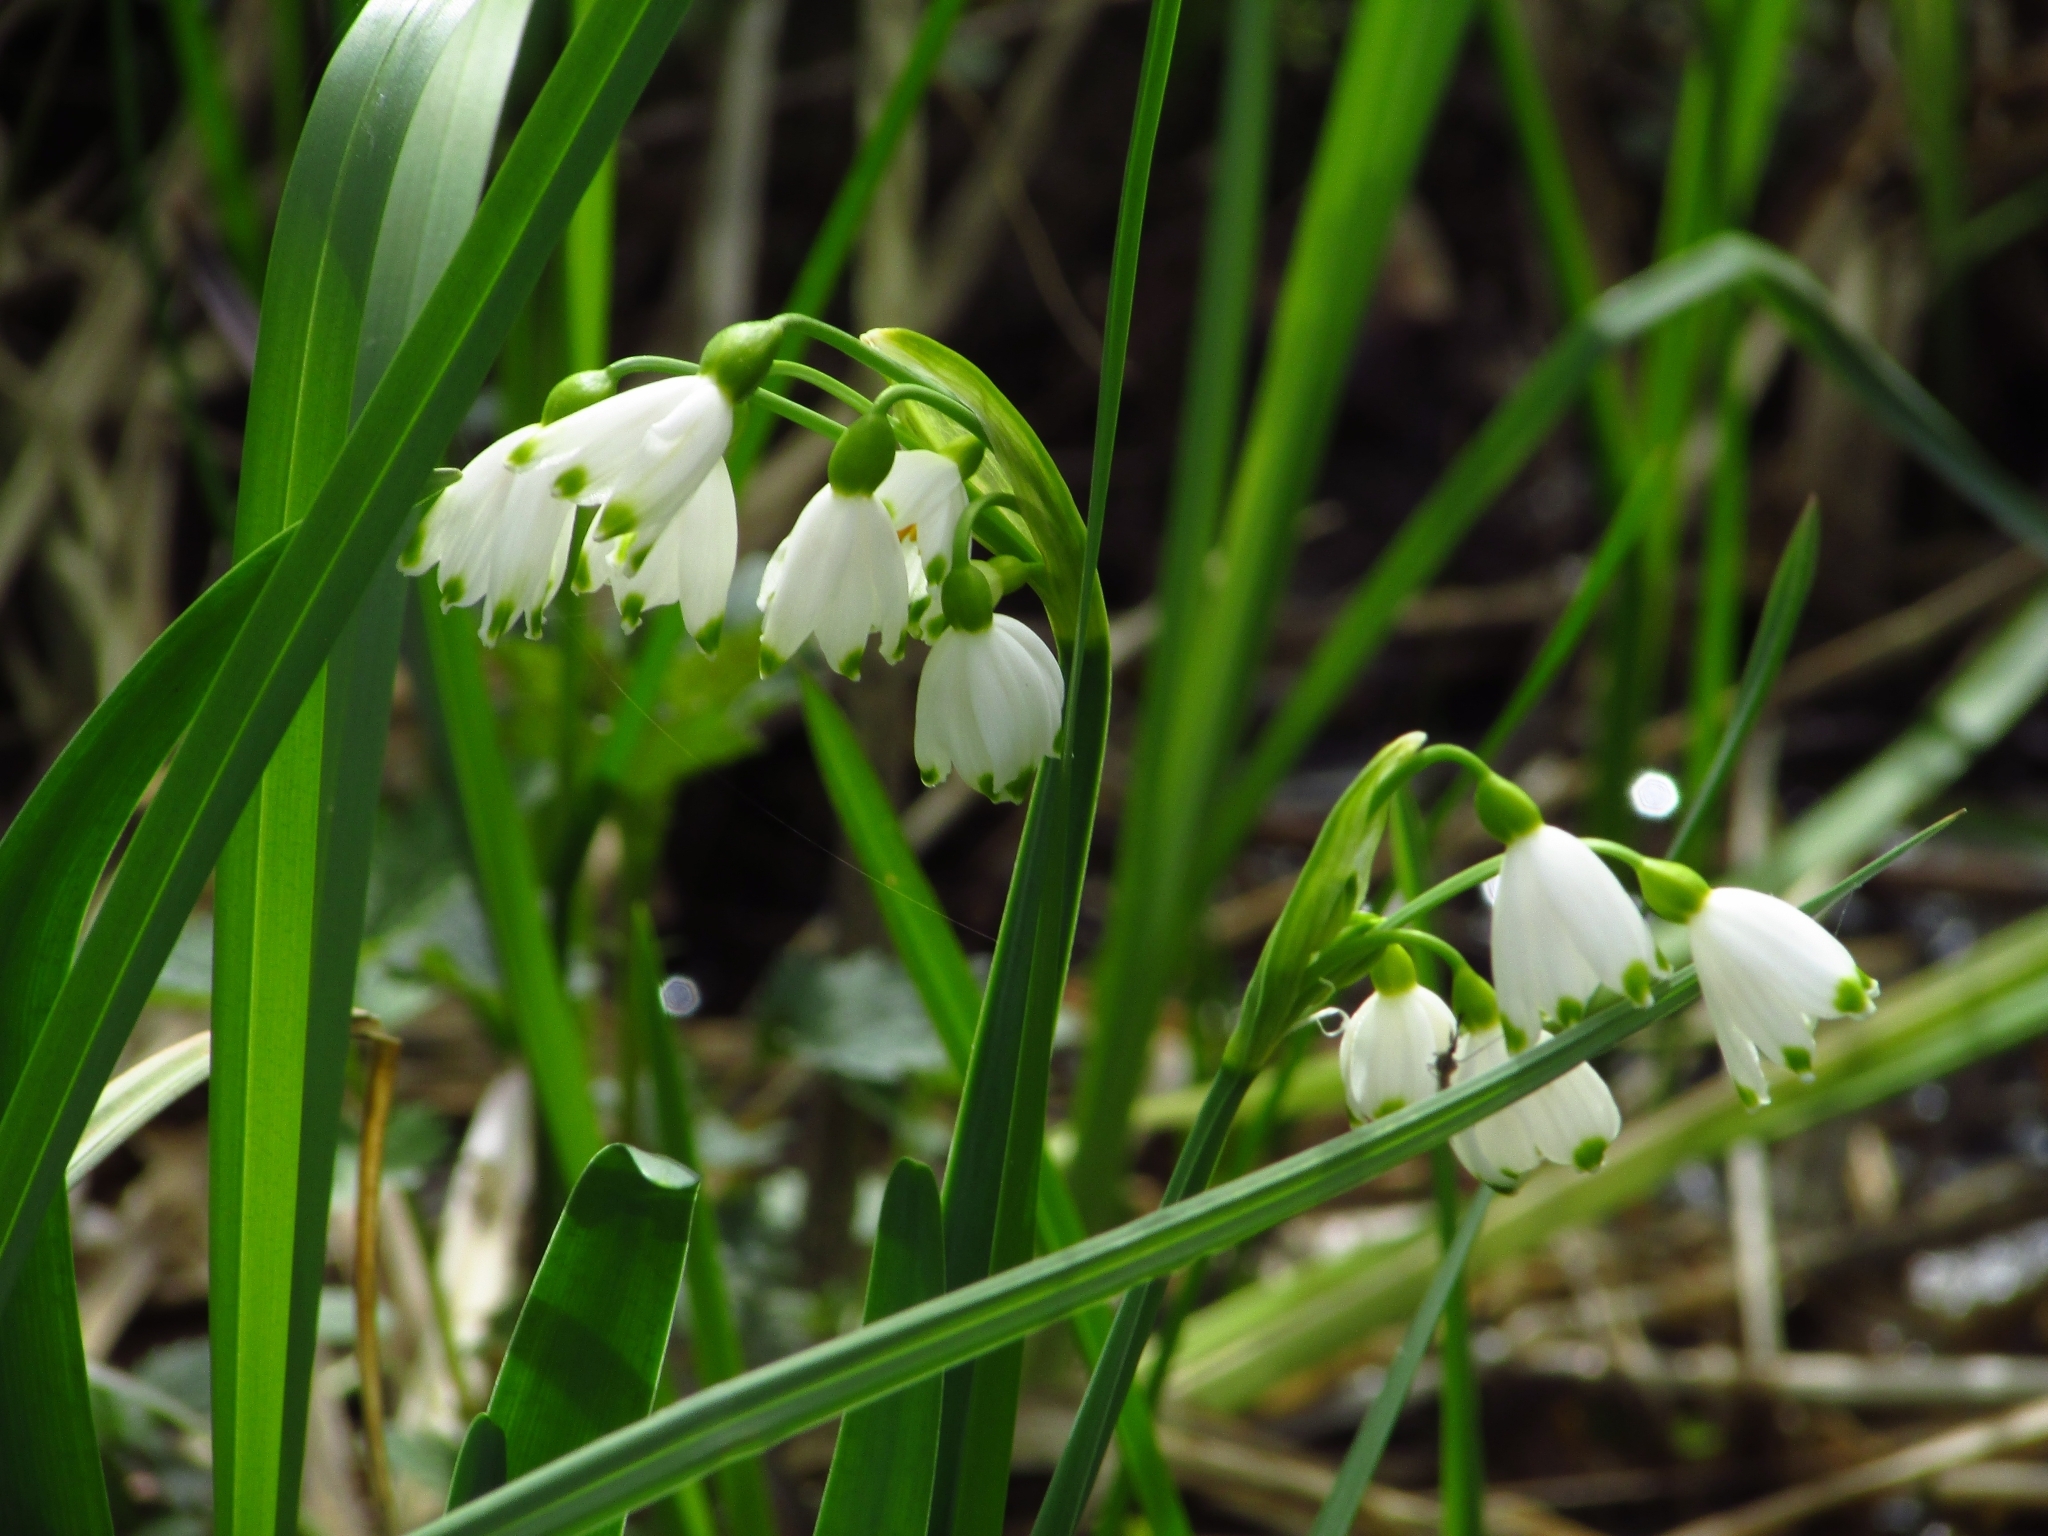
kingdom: Plantae
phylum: Tracheophyta
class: Liliopsida
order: Asparagales
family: Amaryllidaceae
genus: Leucojum
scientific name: Leucojum aestivum
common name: Summer snowflake
